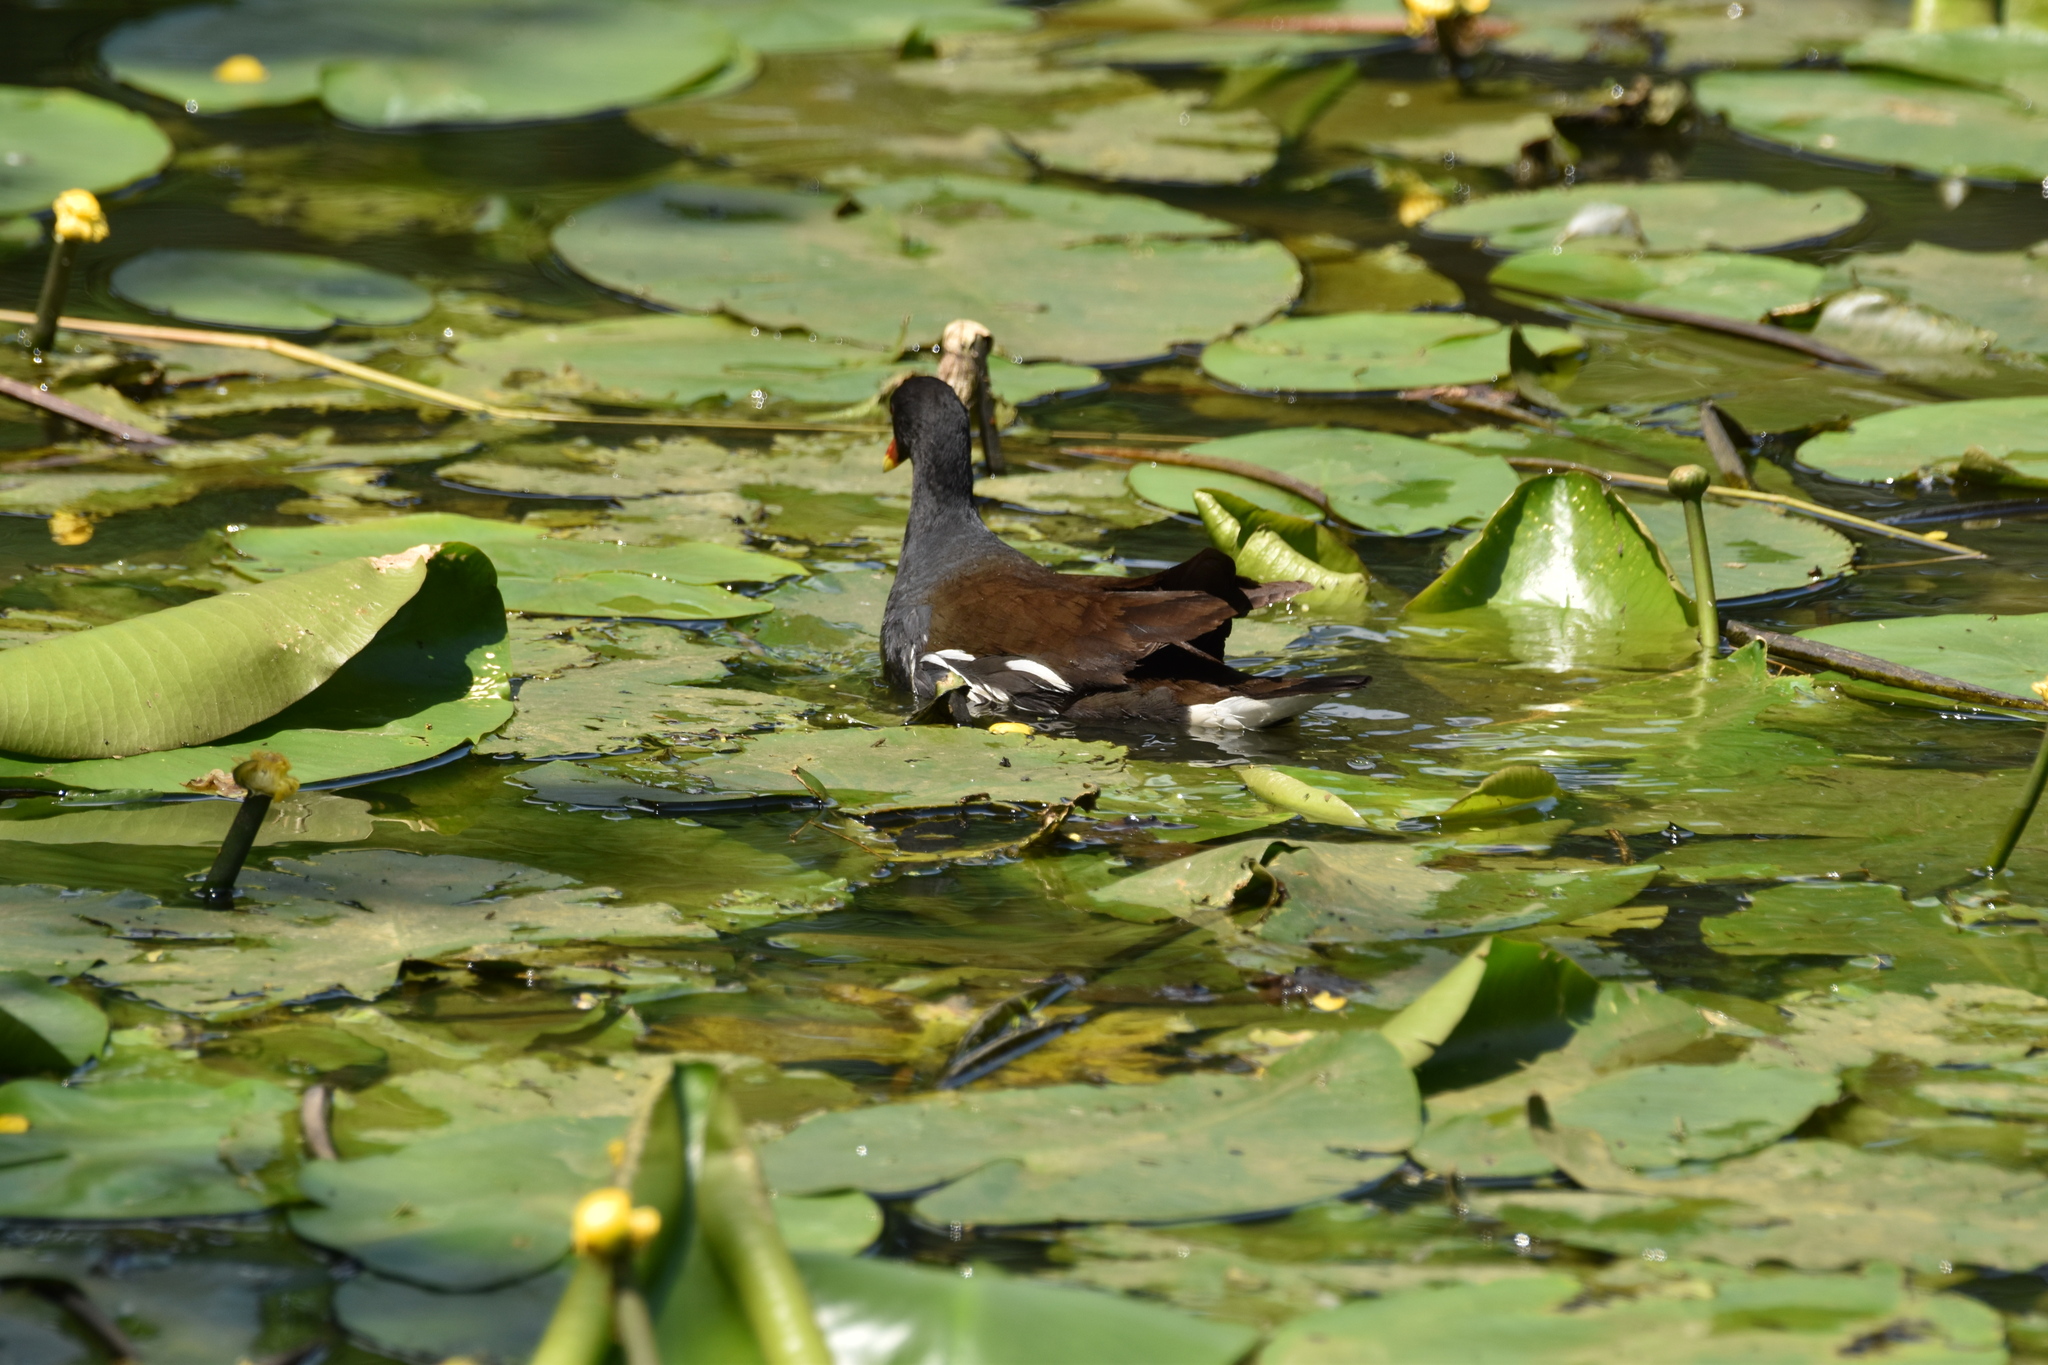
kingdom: Animalia
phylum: Chordata
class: Aves
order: Gruiformes
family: Rallidae
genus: Gallinula
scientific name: Gallinula chloropus
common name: Common moorhen
